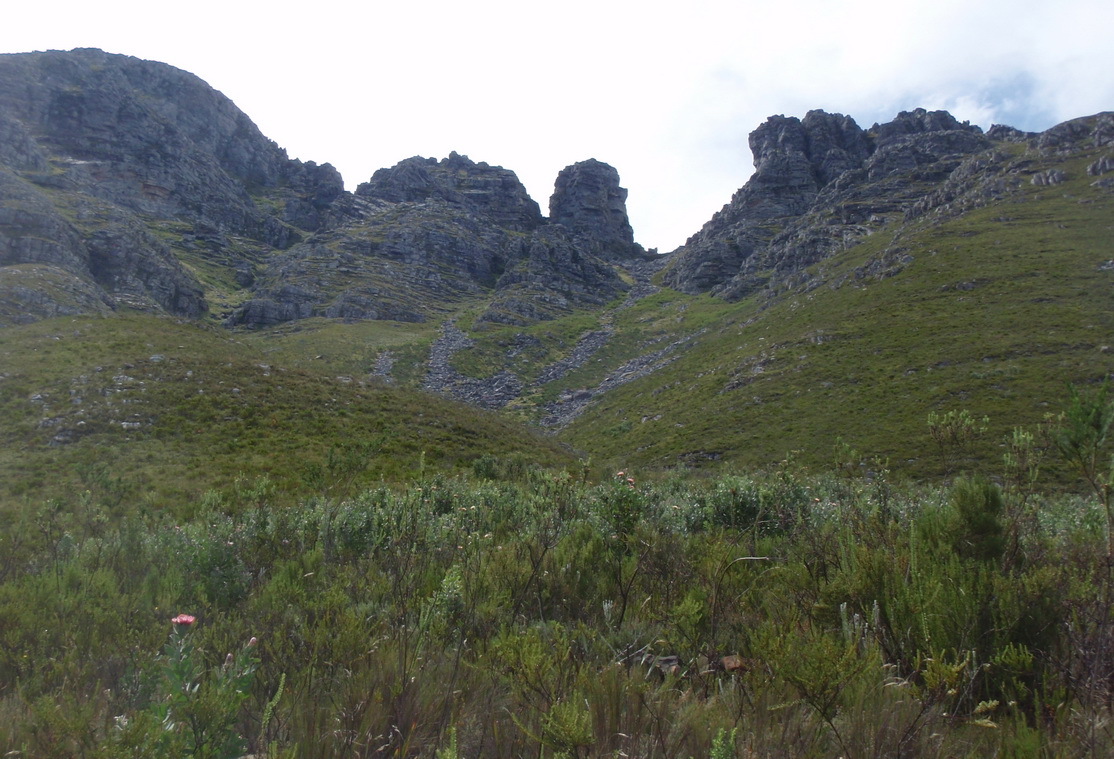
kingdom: Plantae
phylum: Tracheophyta
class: Magnoliopsida
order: Proteales
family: Proteaceae
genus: Protea
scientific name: Protea punctata
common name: Water sugarbush
